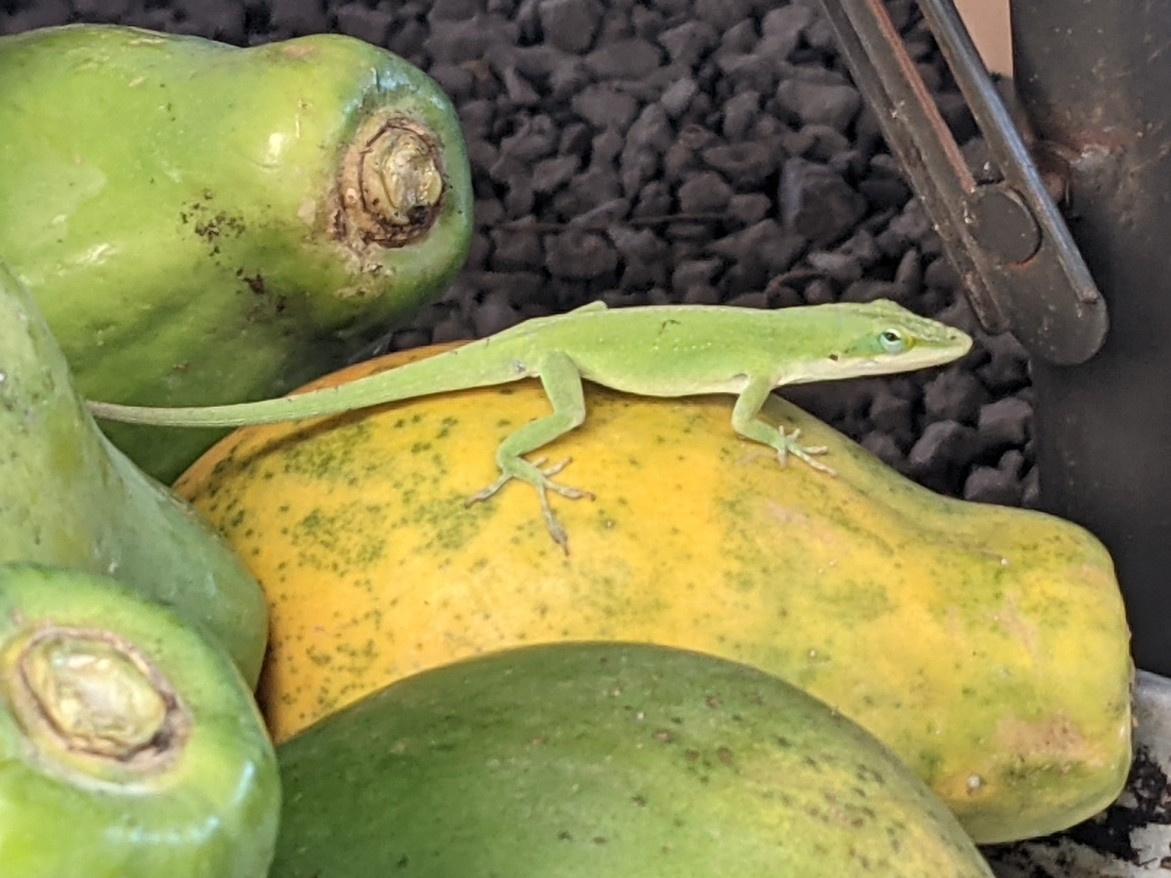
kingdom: Animalia
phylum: Chordata
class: Squamata
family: Dactyloidae
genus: Anolis
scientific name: Anolis carolinensis
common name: Green anole
